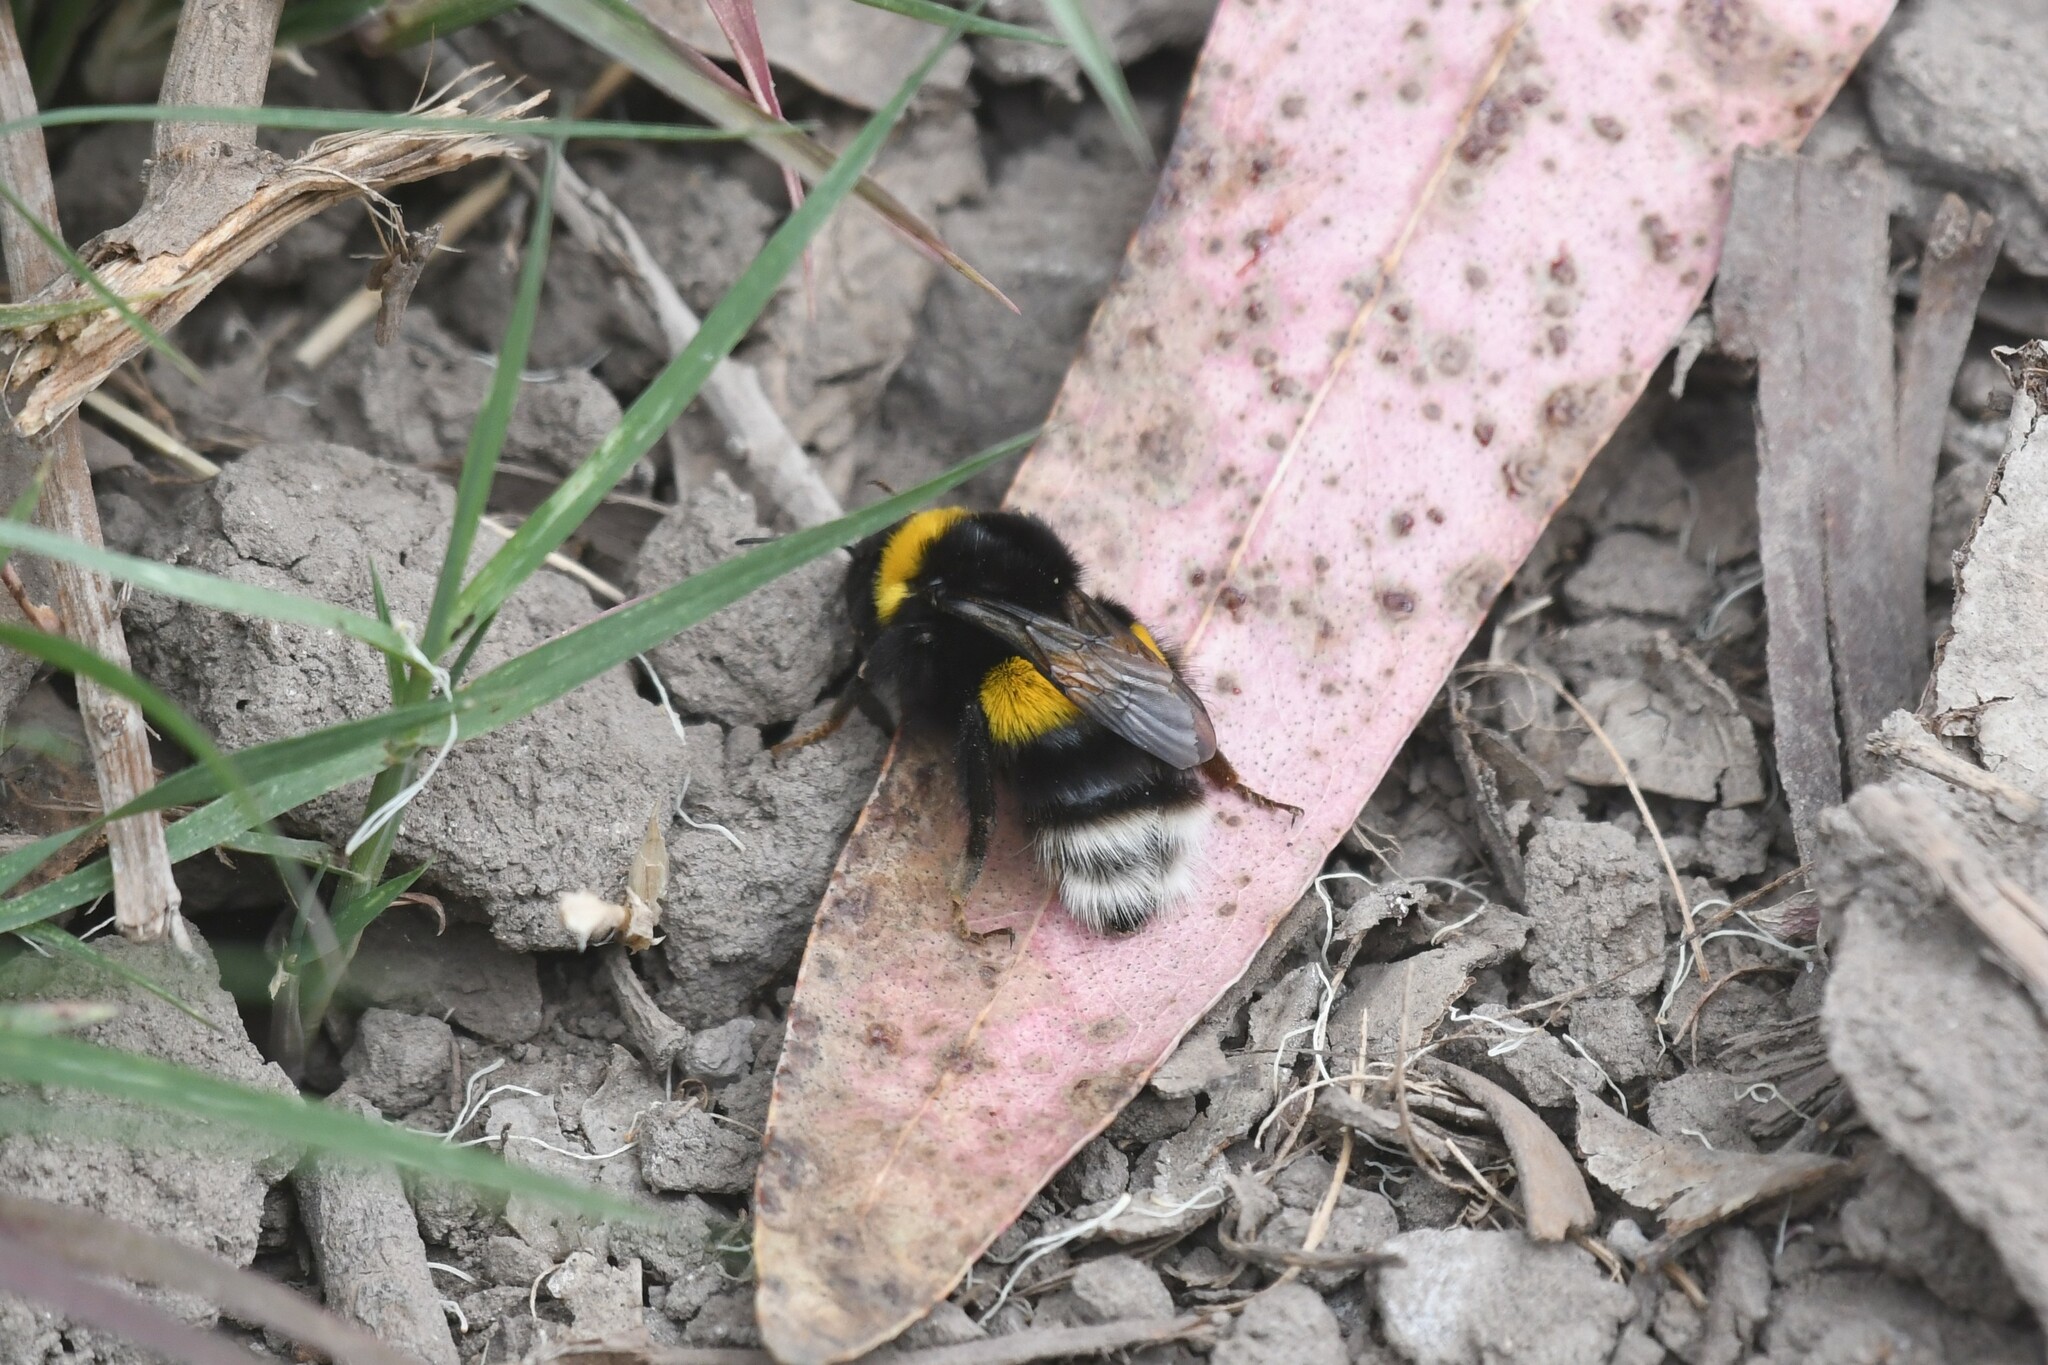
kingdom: Animalia
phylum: Arthropoda
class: Insecta
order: Hymenoptera
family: Apidae
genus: Bombus
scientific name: Bombus terrestris
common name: Buff-tailed bumblebee
